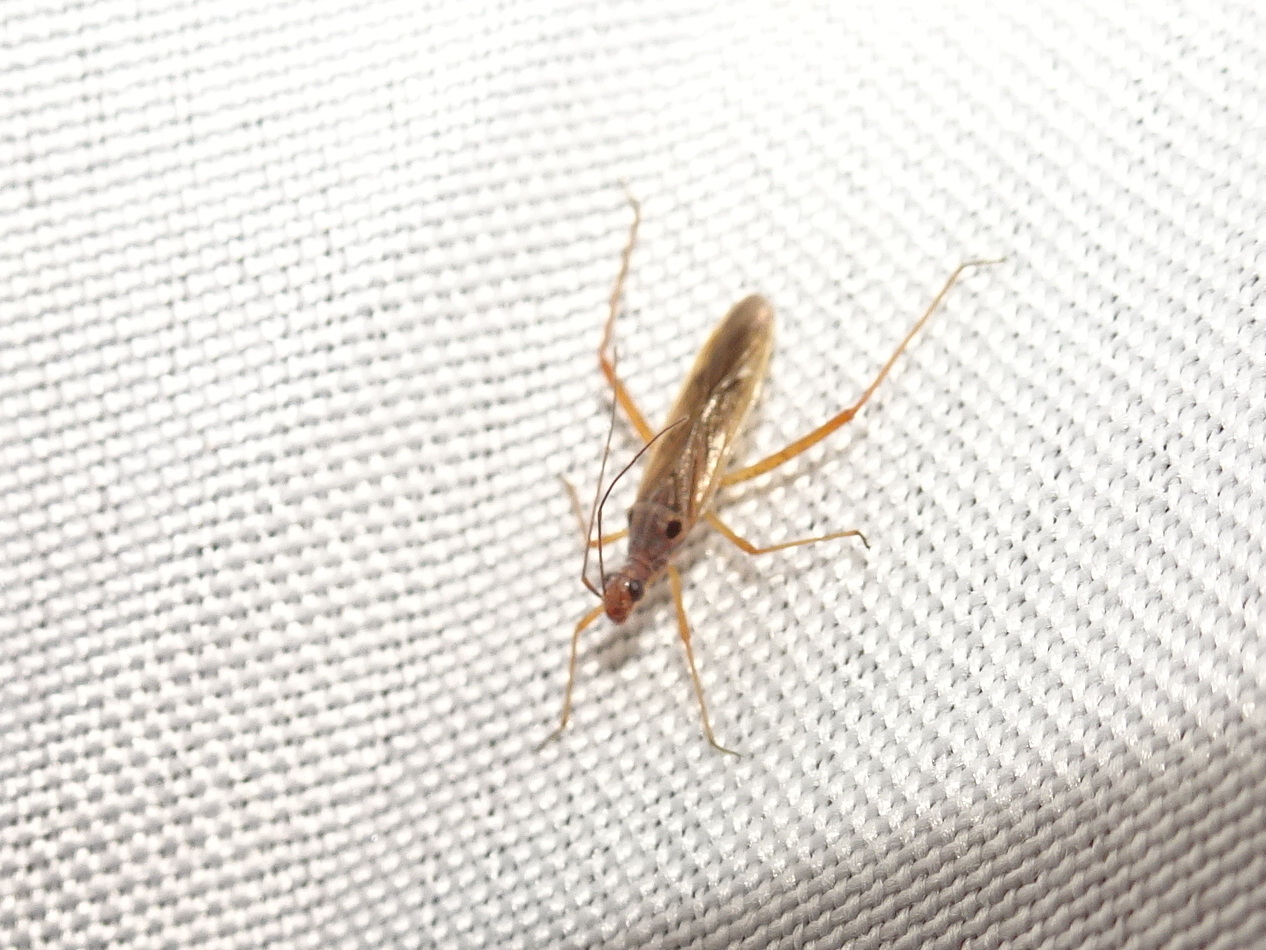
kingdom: Animalia
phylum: Arthropoda
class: Insecta
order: Hemiptera
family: Miridae
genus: Collaria
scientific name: Collaria oculata
